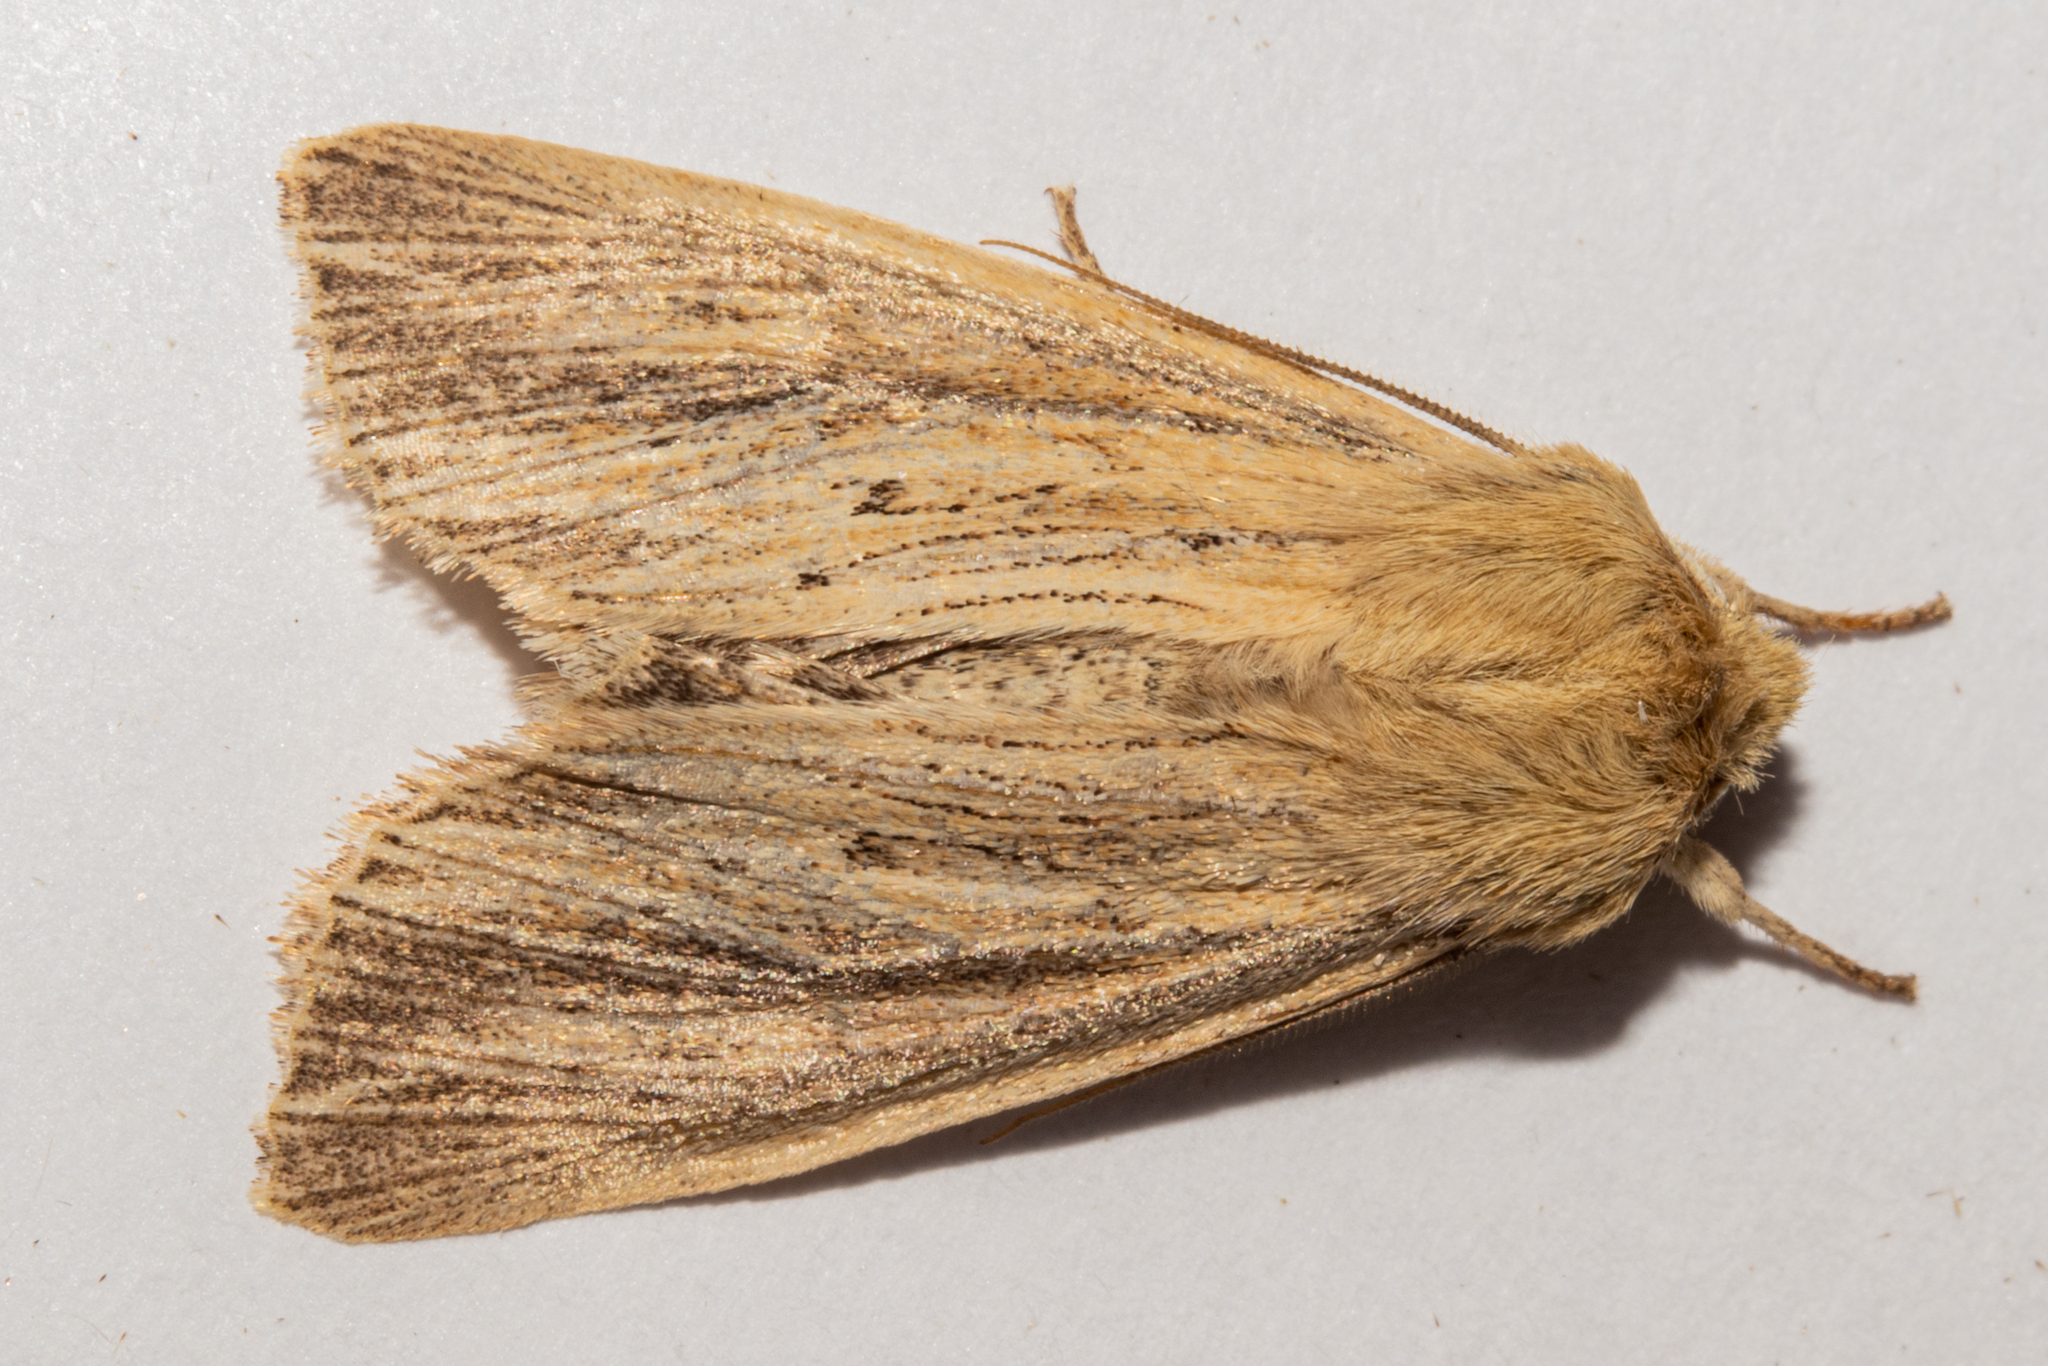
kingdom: Animalia
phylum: Arthropoda
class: Insecta
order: Lepidoptera
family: Noctuidae
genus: Ichneutica
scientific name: Ichneutica arotis
